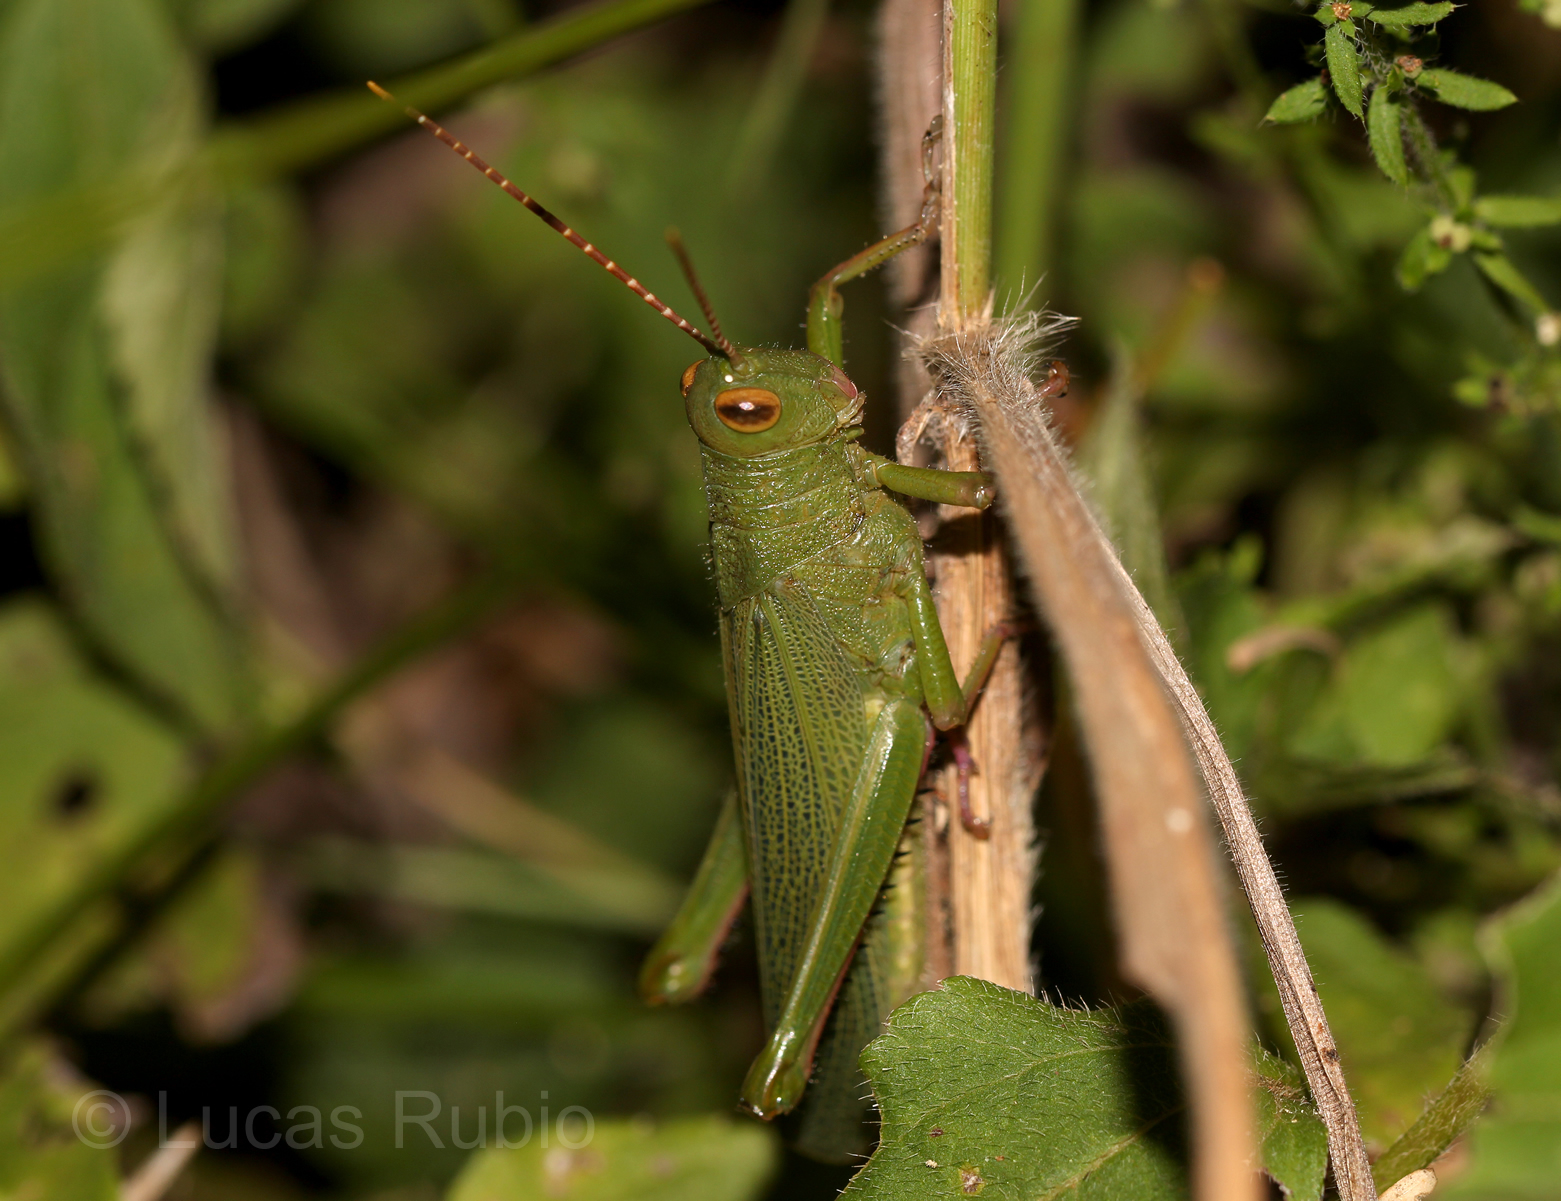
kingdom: Animalia
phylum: Arthropoda
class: Insecta
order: Orthoptera
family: Romaleidae
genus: Zoniopoda
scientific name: Zoniopoda iheringi
